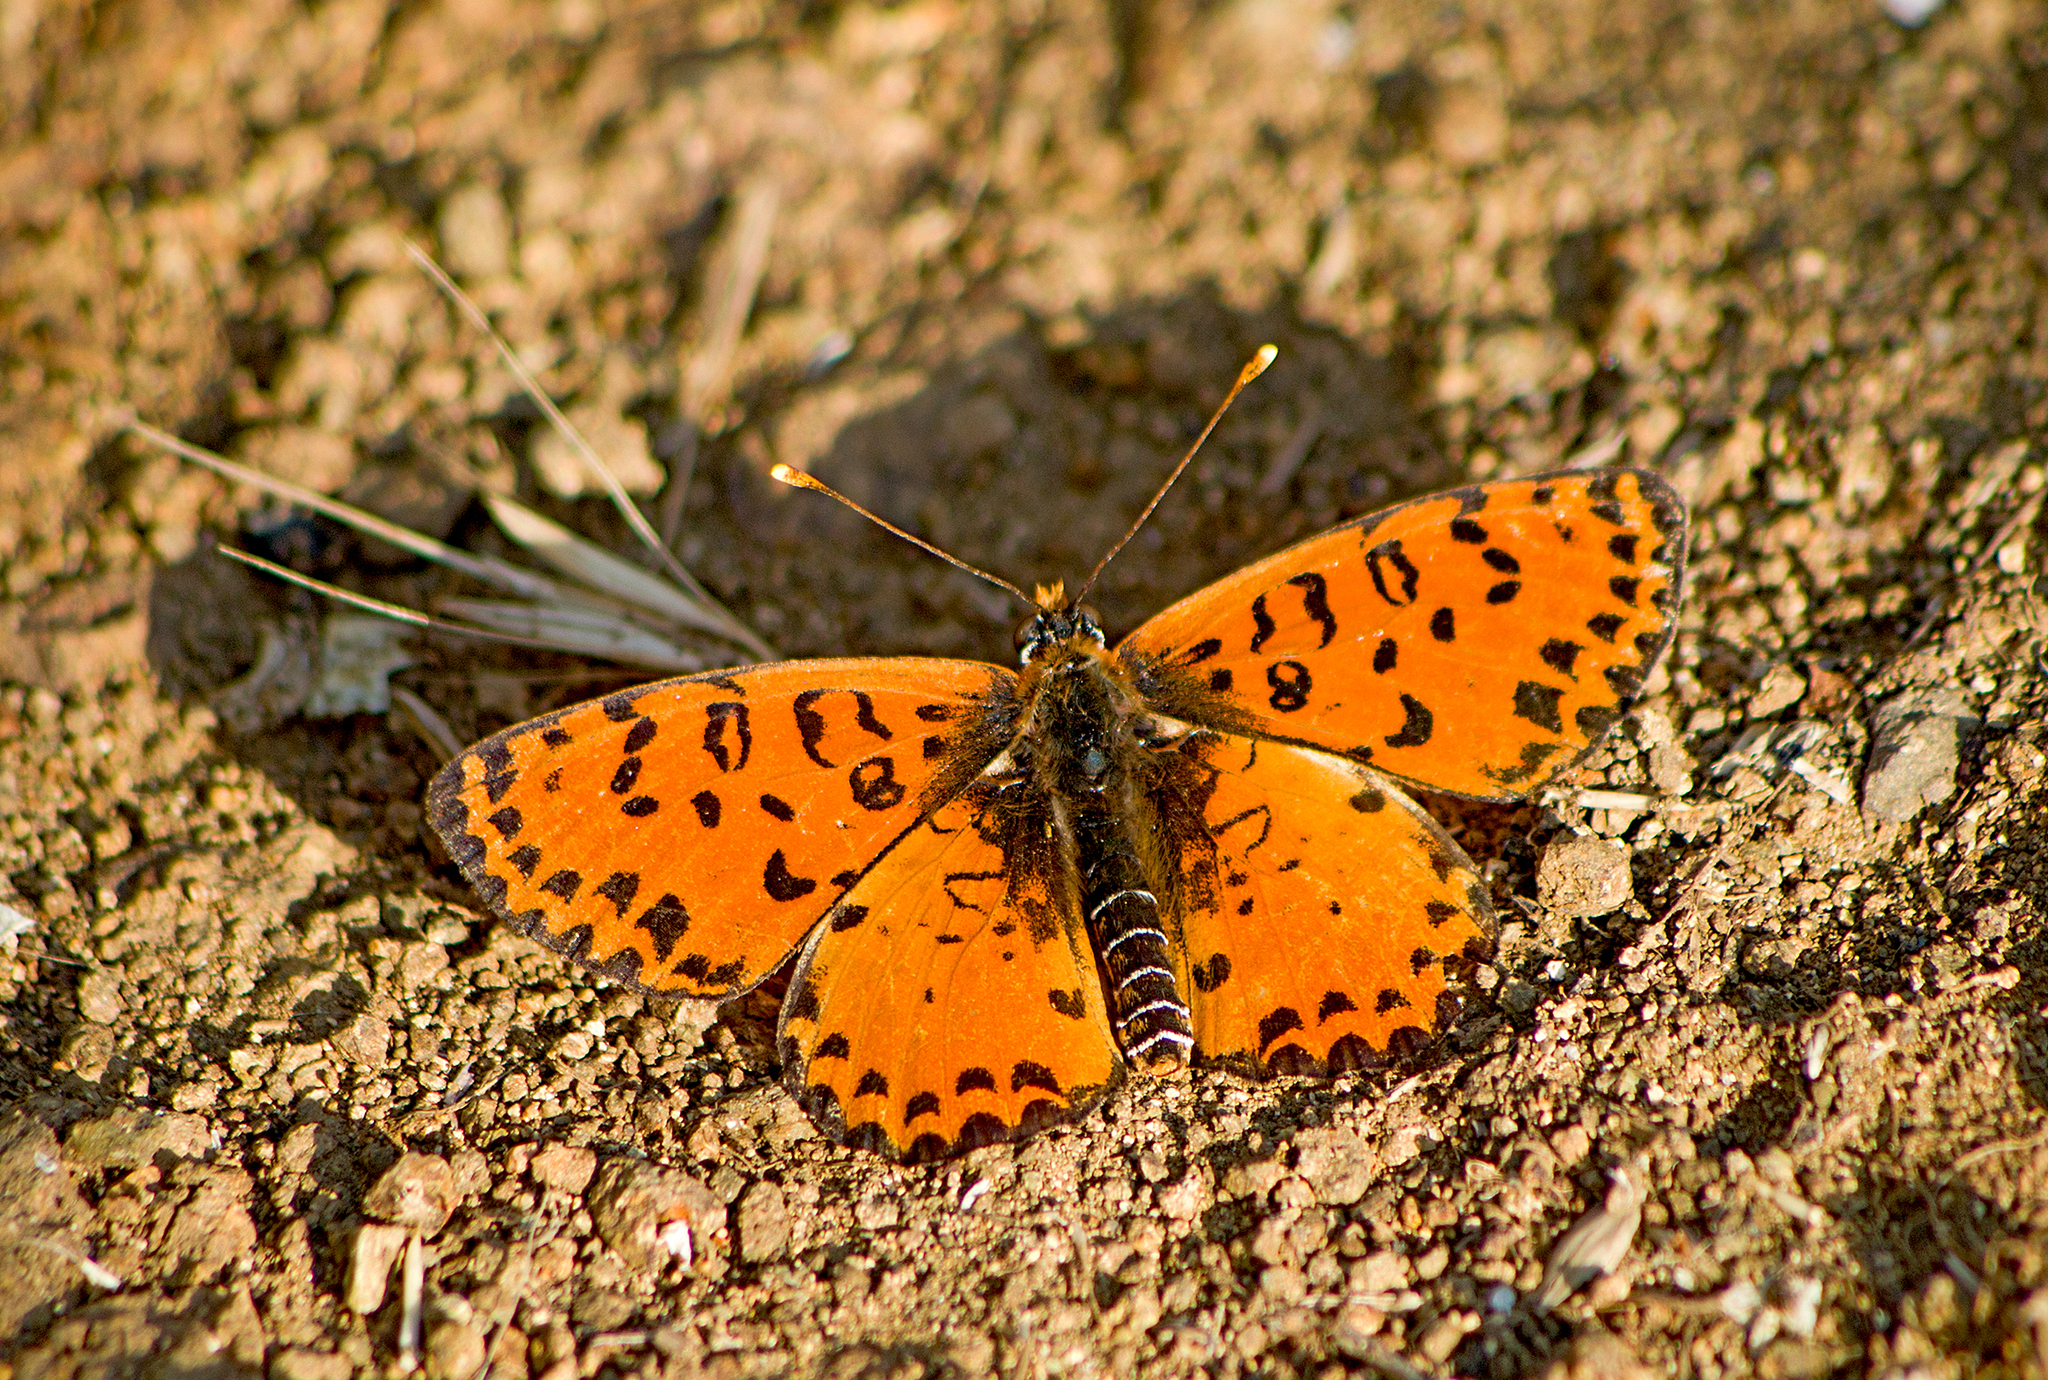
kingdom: Animalia
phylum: Arthropoda
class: Insecta
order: Lepidoptera
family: Nymphalidae
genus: Melitaea
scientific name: Melitaea didyma
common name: Spotted fritillary
